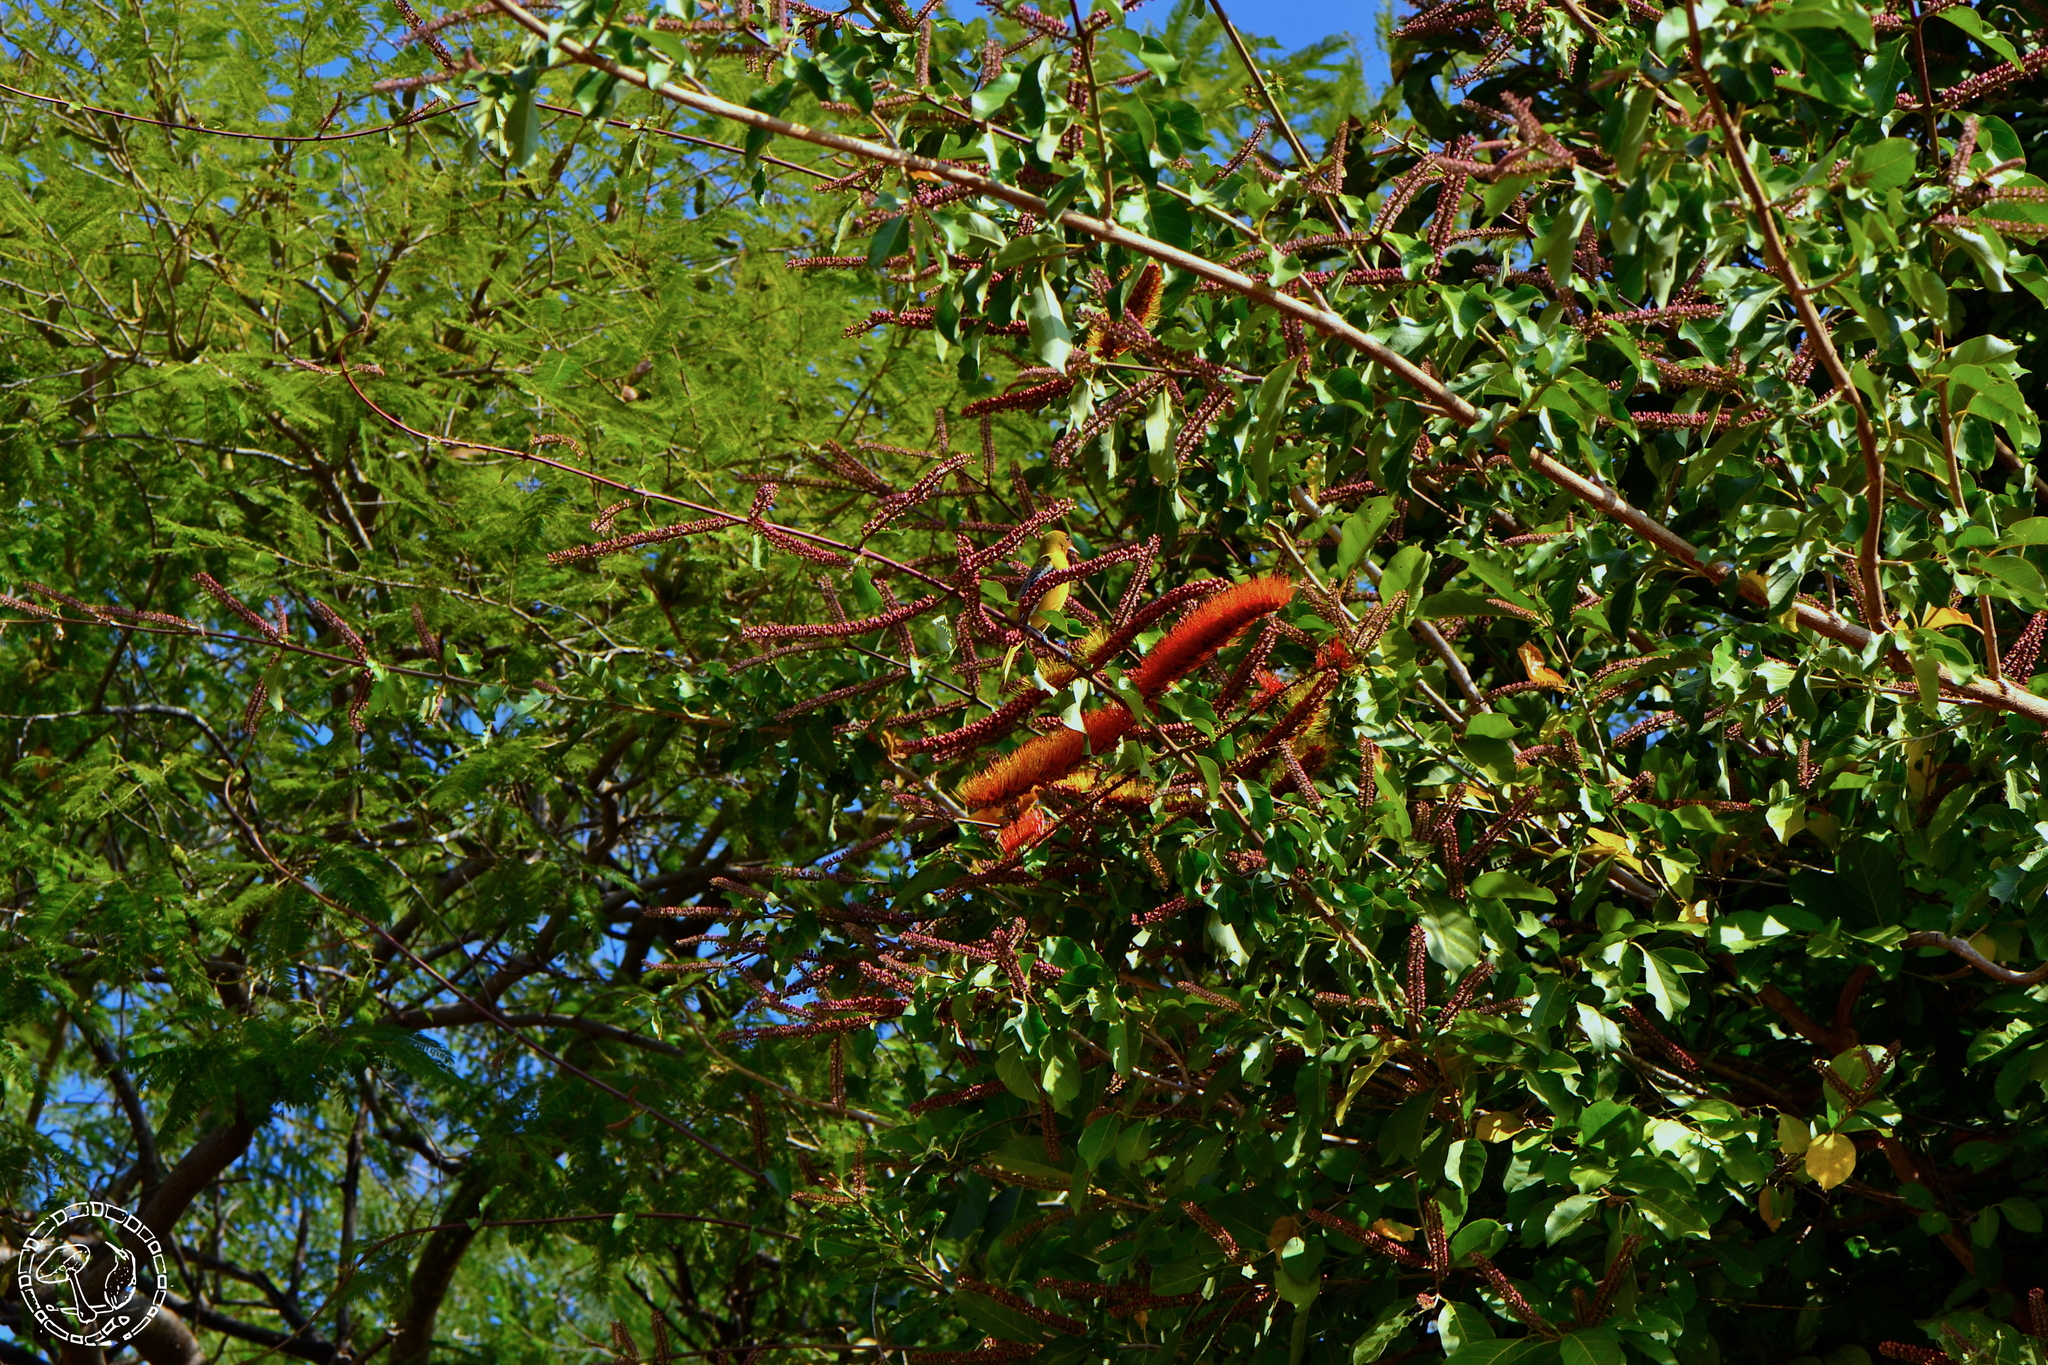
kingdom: Plantae
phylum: Tracheophyta
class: Magnoliopsida
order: Myrtales
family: Combretaceae
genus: Combretum
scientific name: Combretum fruticosum
